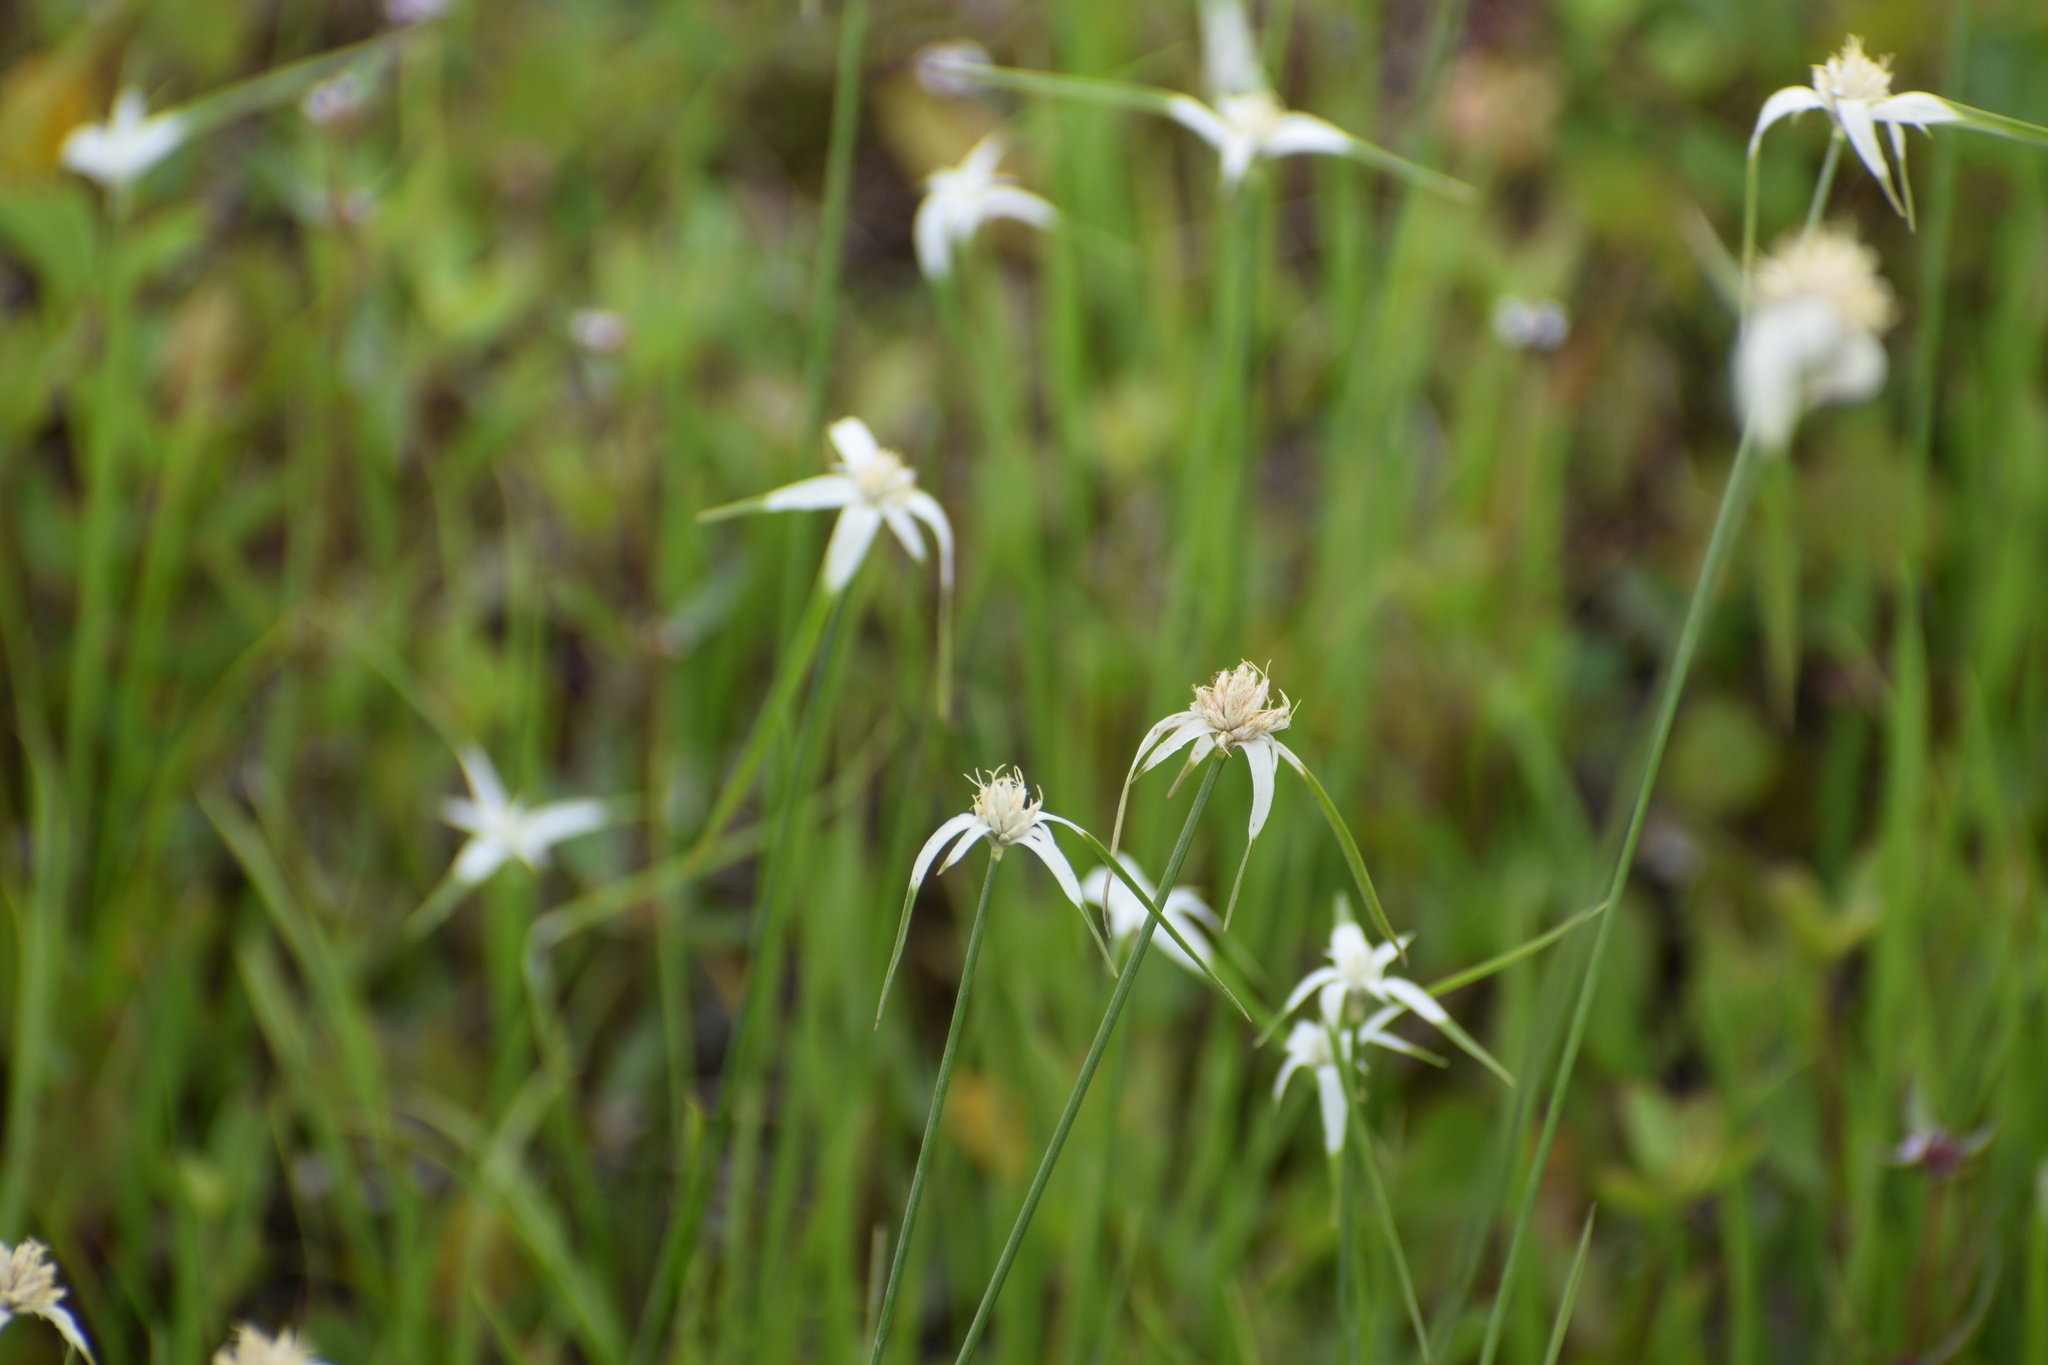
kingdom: Plantae
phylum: Tracheophyta
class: Liliopsida
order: Poales
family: Cyperaceae
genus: Rhynchospora
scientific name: Rhynchospora colorata
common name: Star sedge
